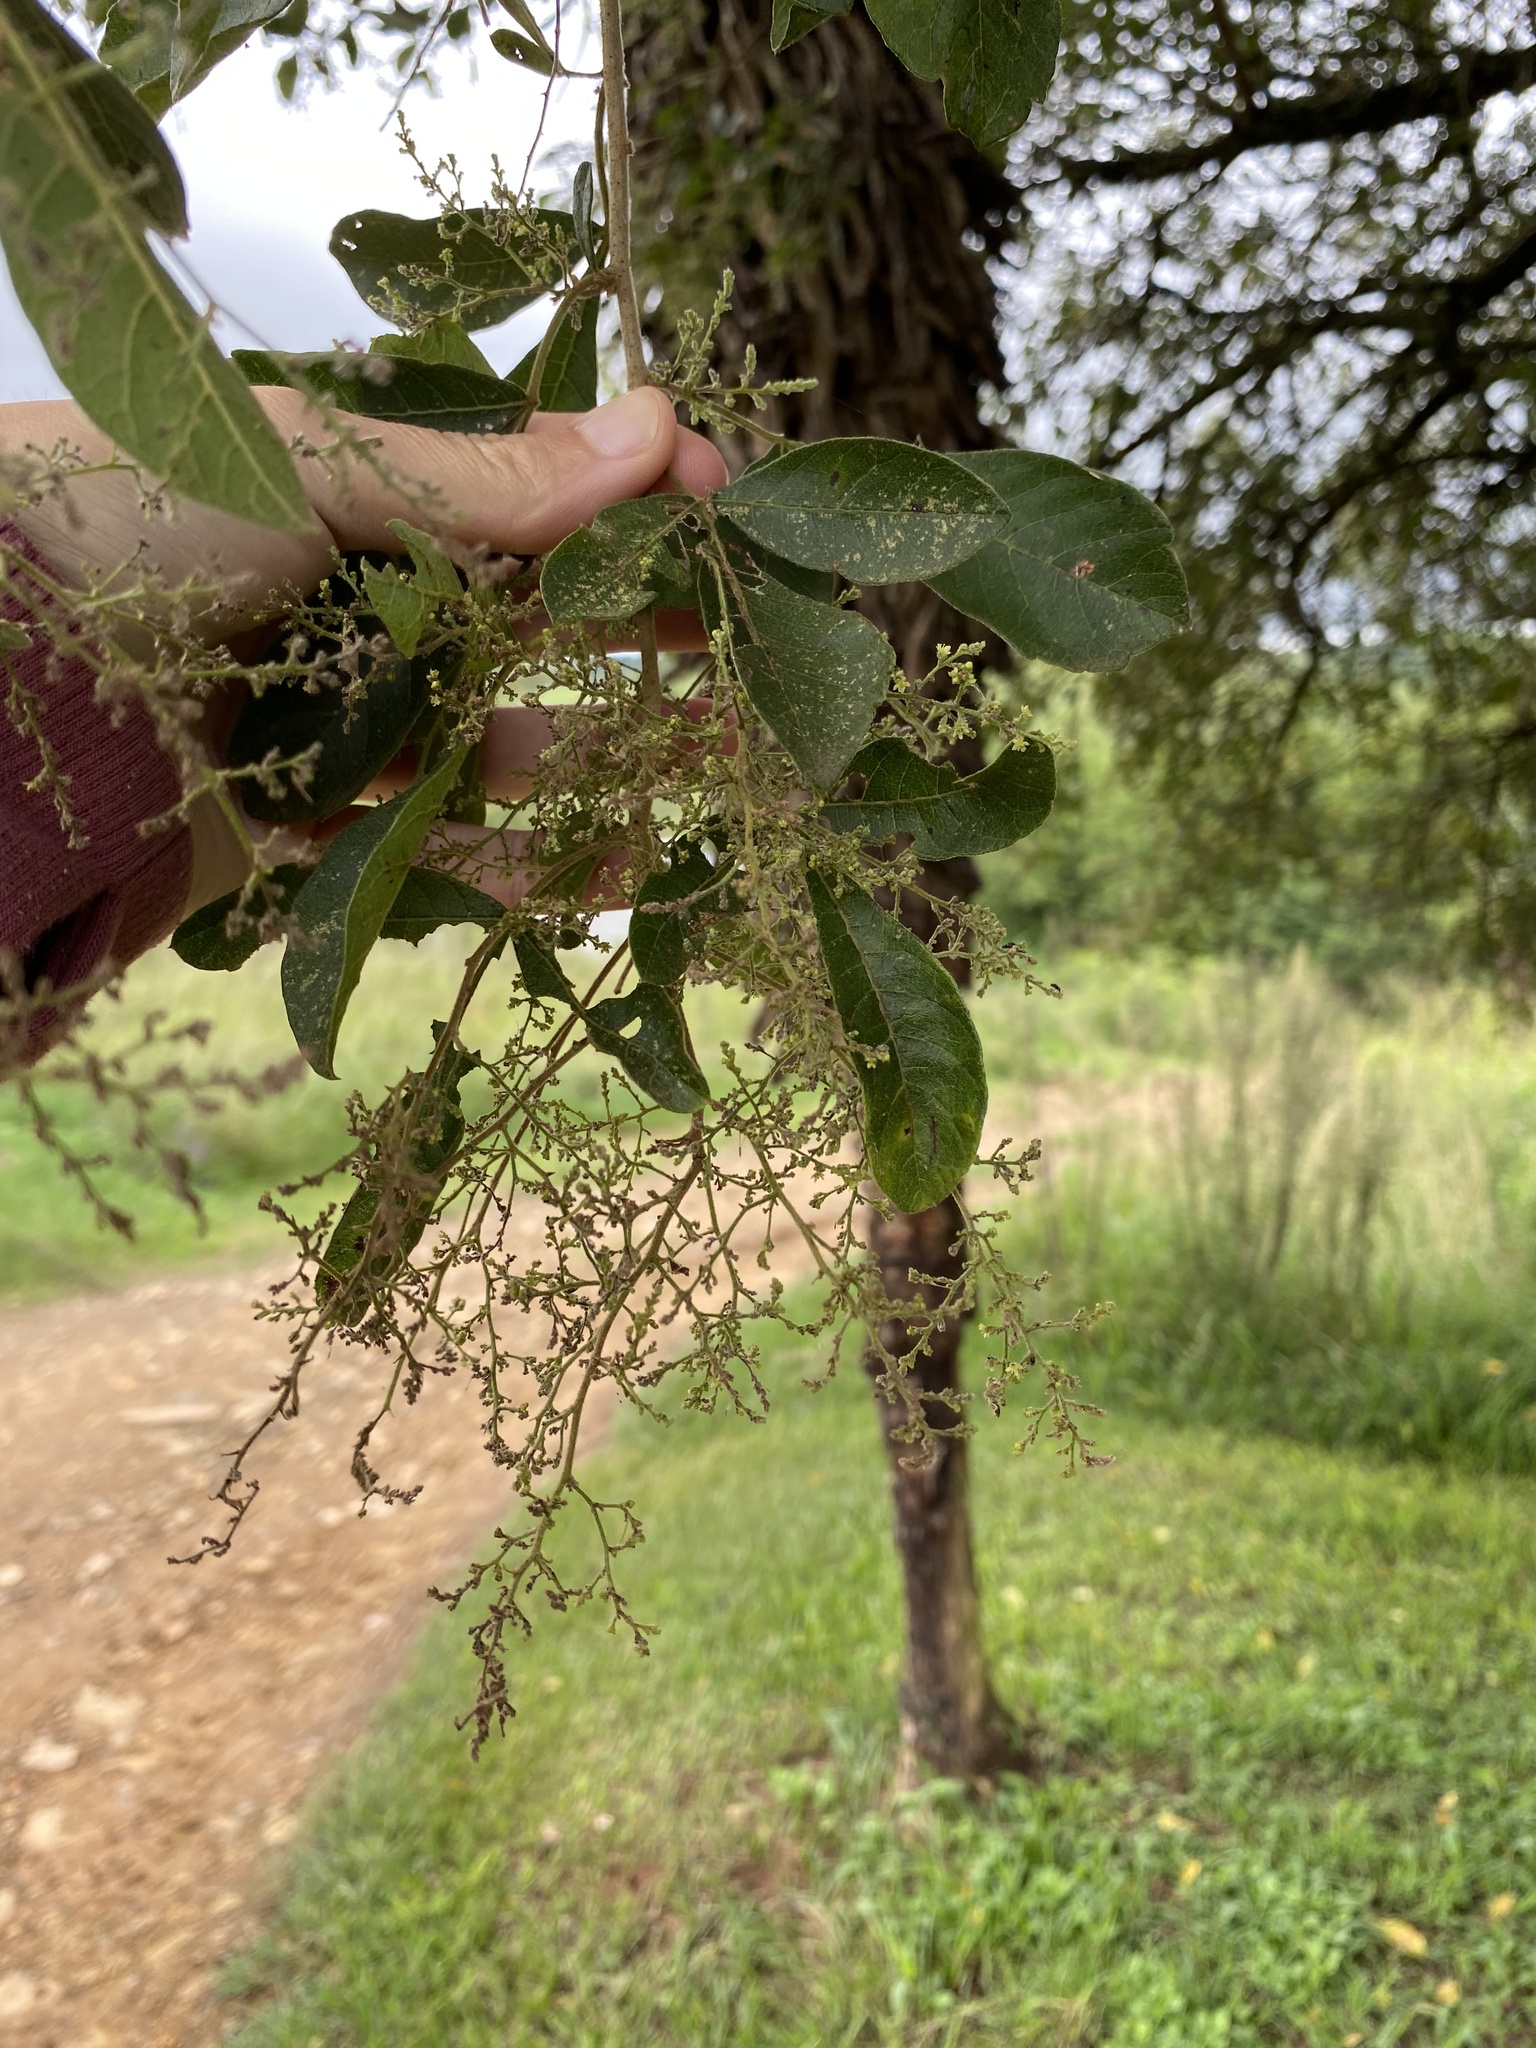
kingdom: Plantae
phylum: Tracheophyta
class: Magnoliopsida
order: Sapindales
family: Anacardiaceae
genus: Searsia
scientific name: Searsia pyroides
